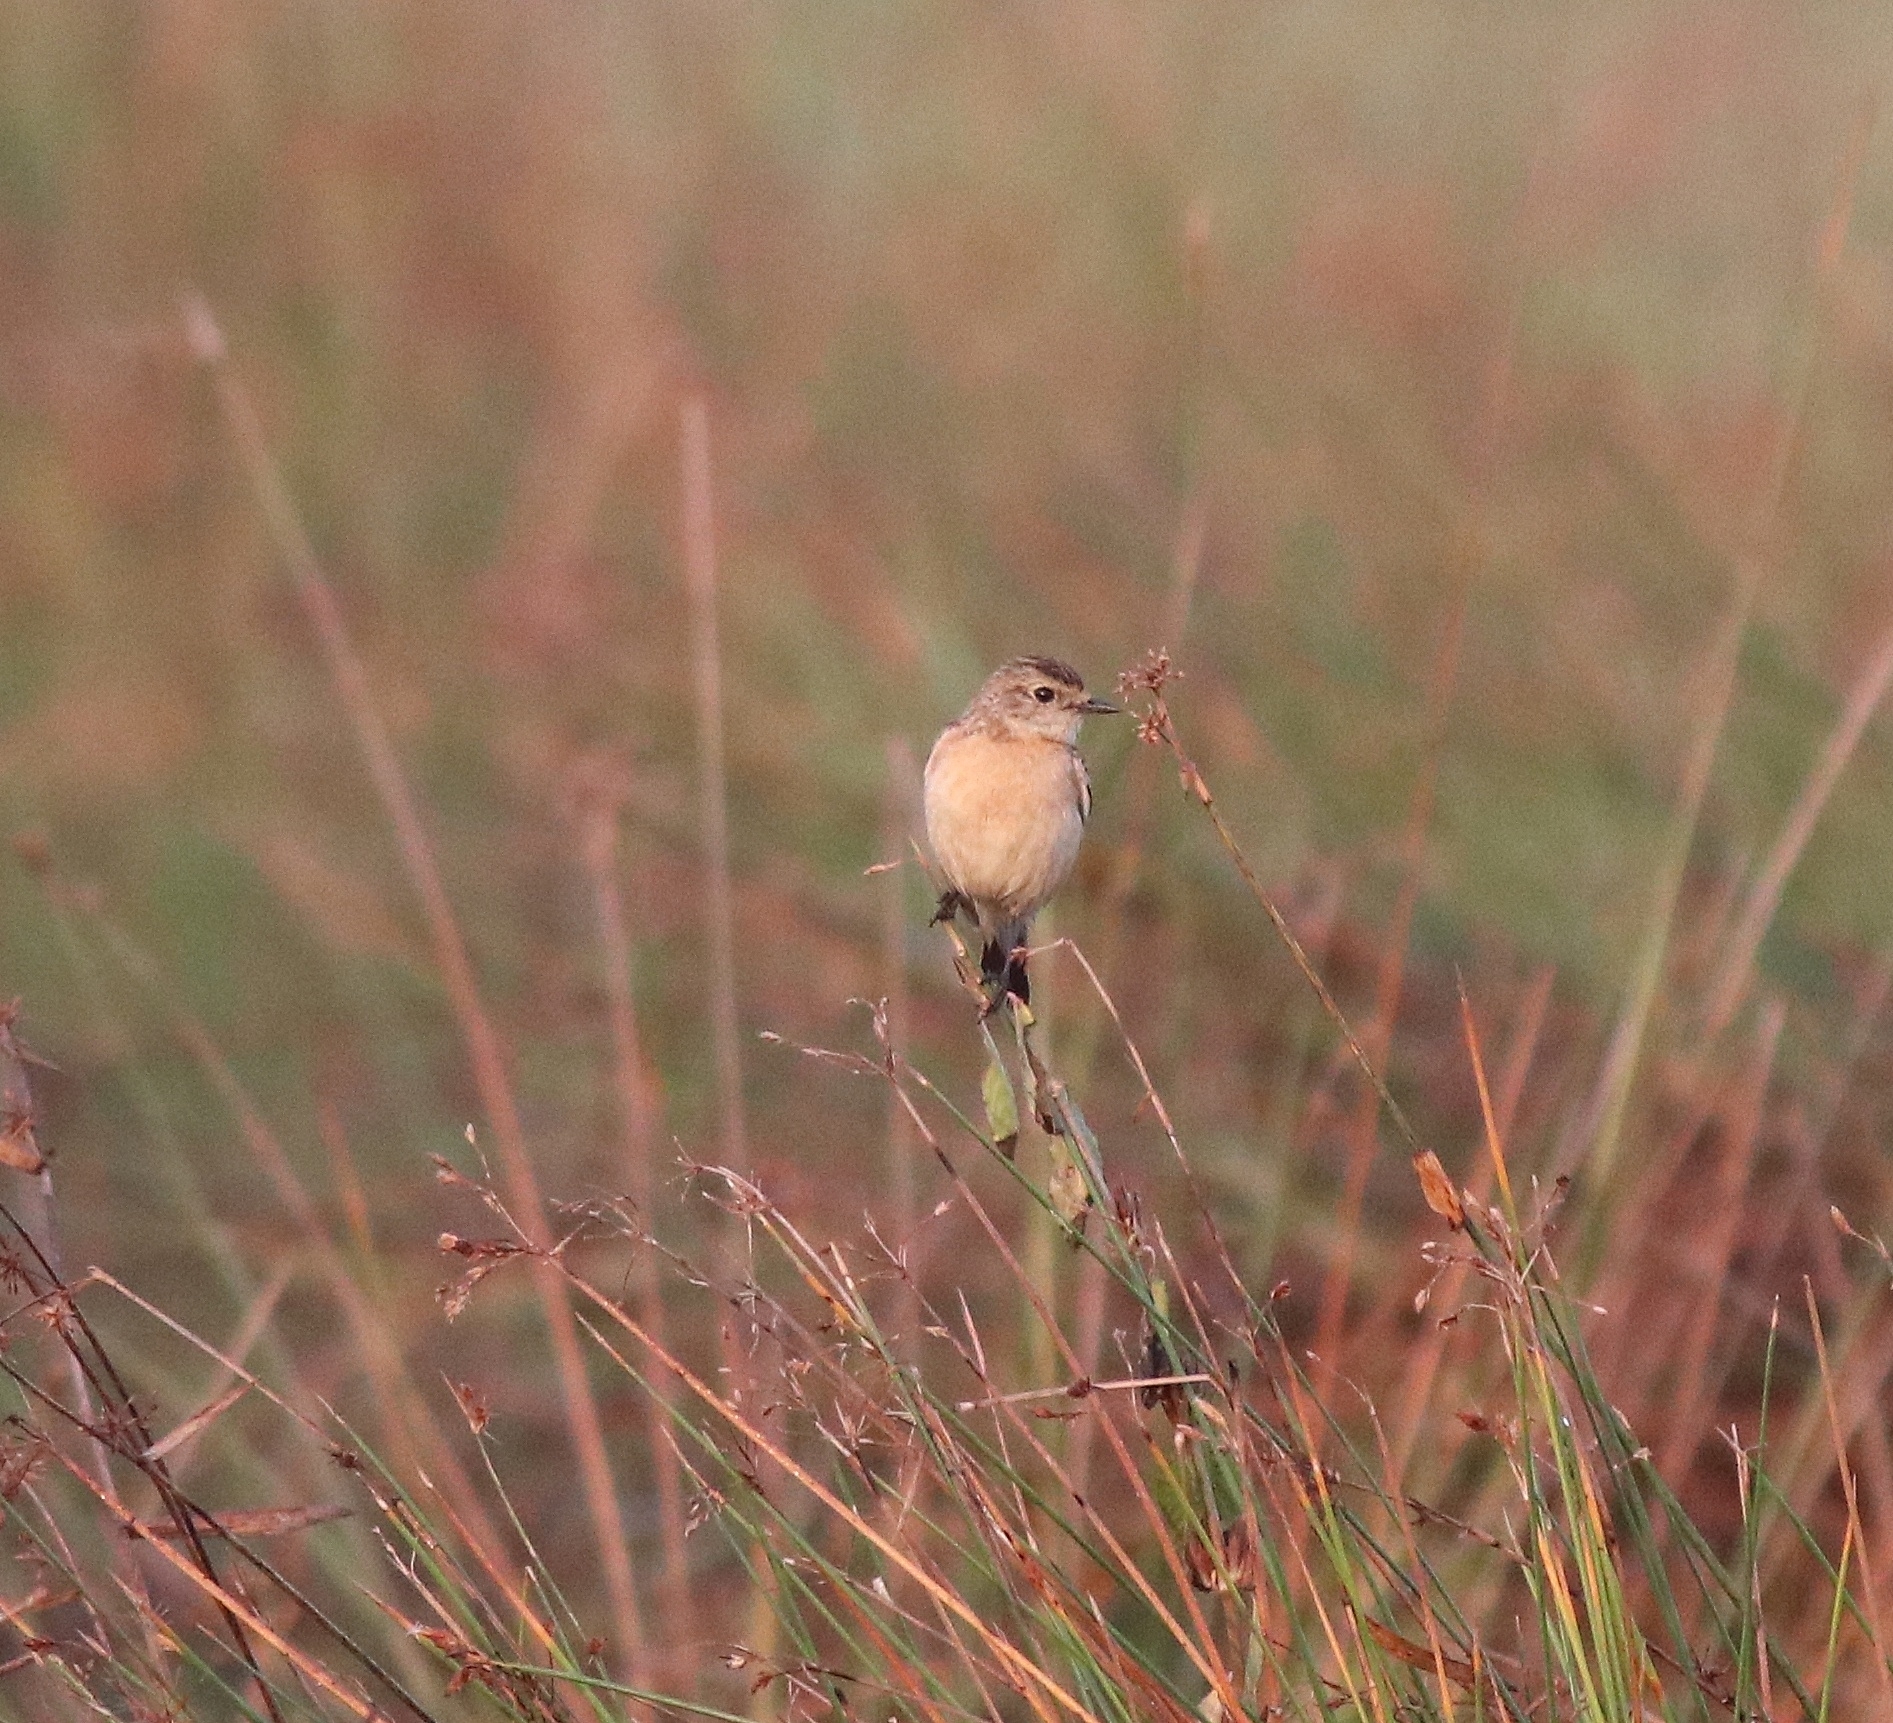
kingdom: Animalia
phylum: Chordata
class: Aves
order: Passeriformes
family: Muscicapidae
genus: Saxicola
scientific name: Saxicola maurus
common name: Siberian stonechat
